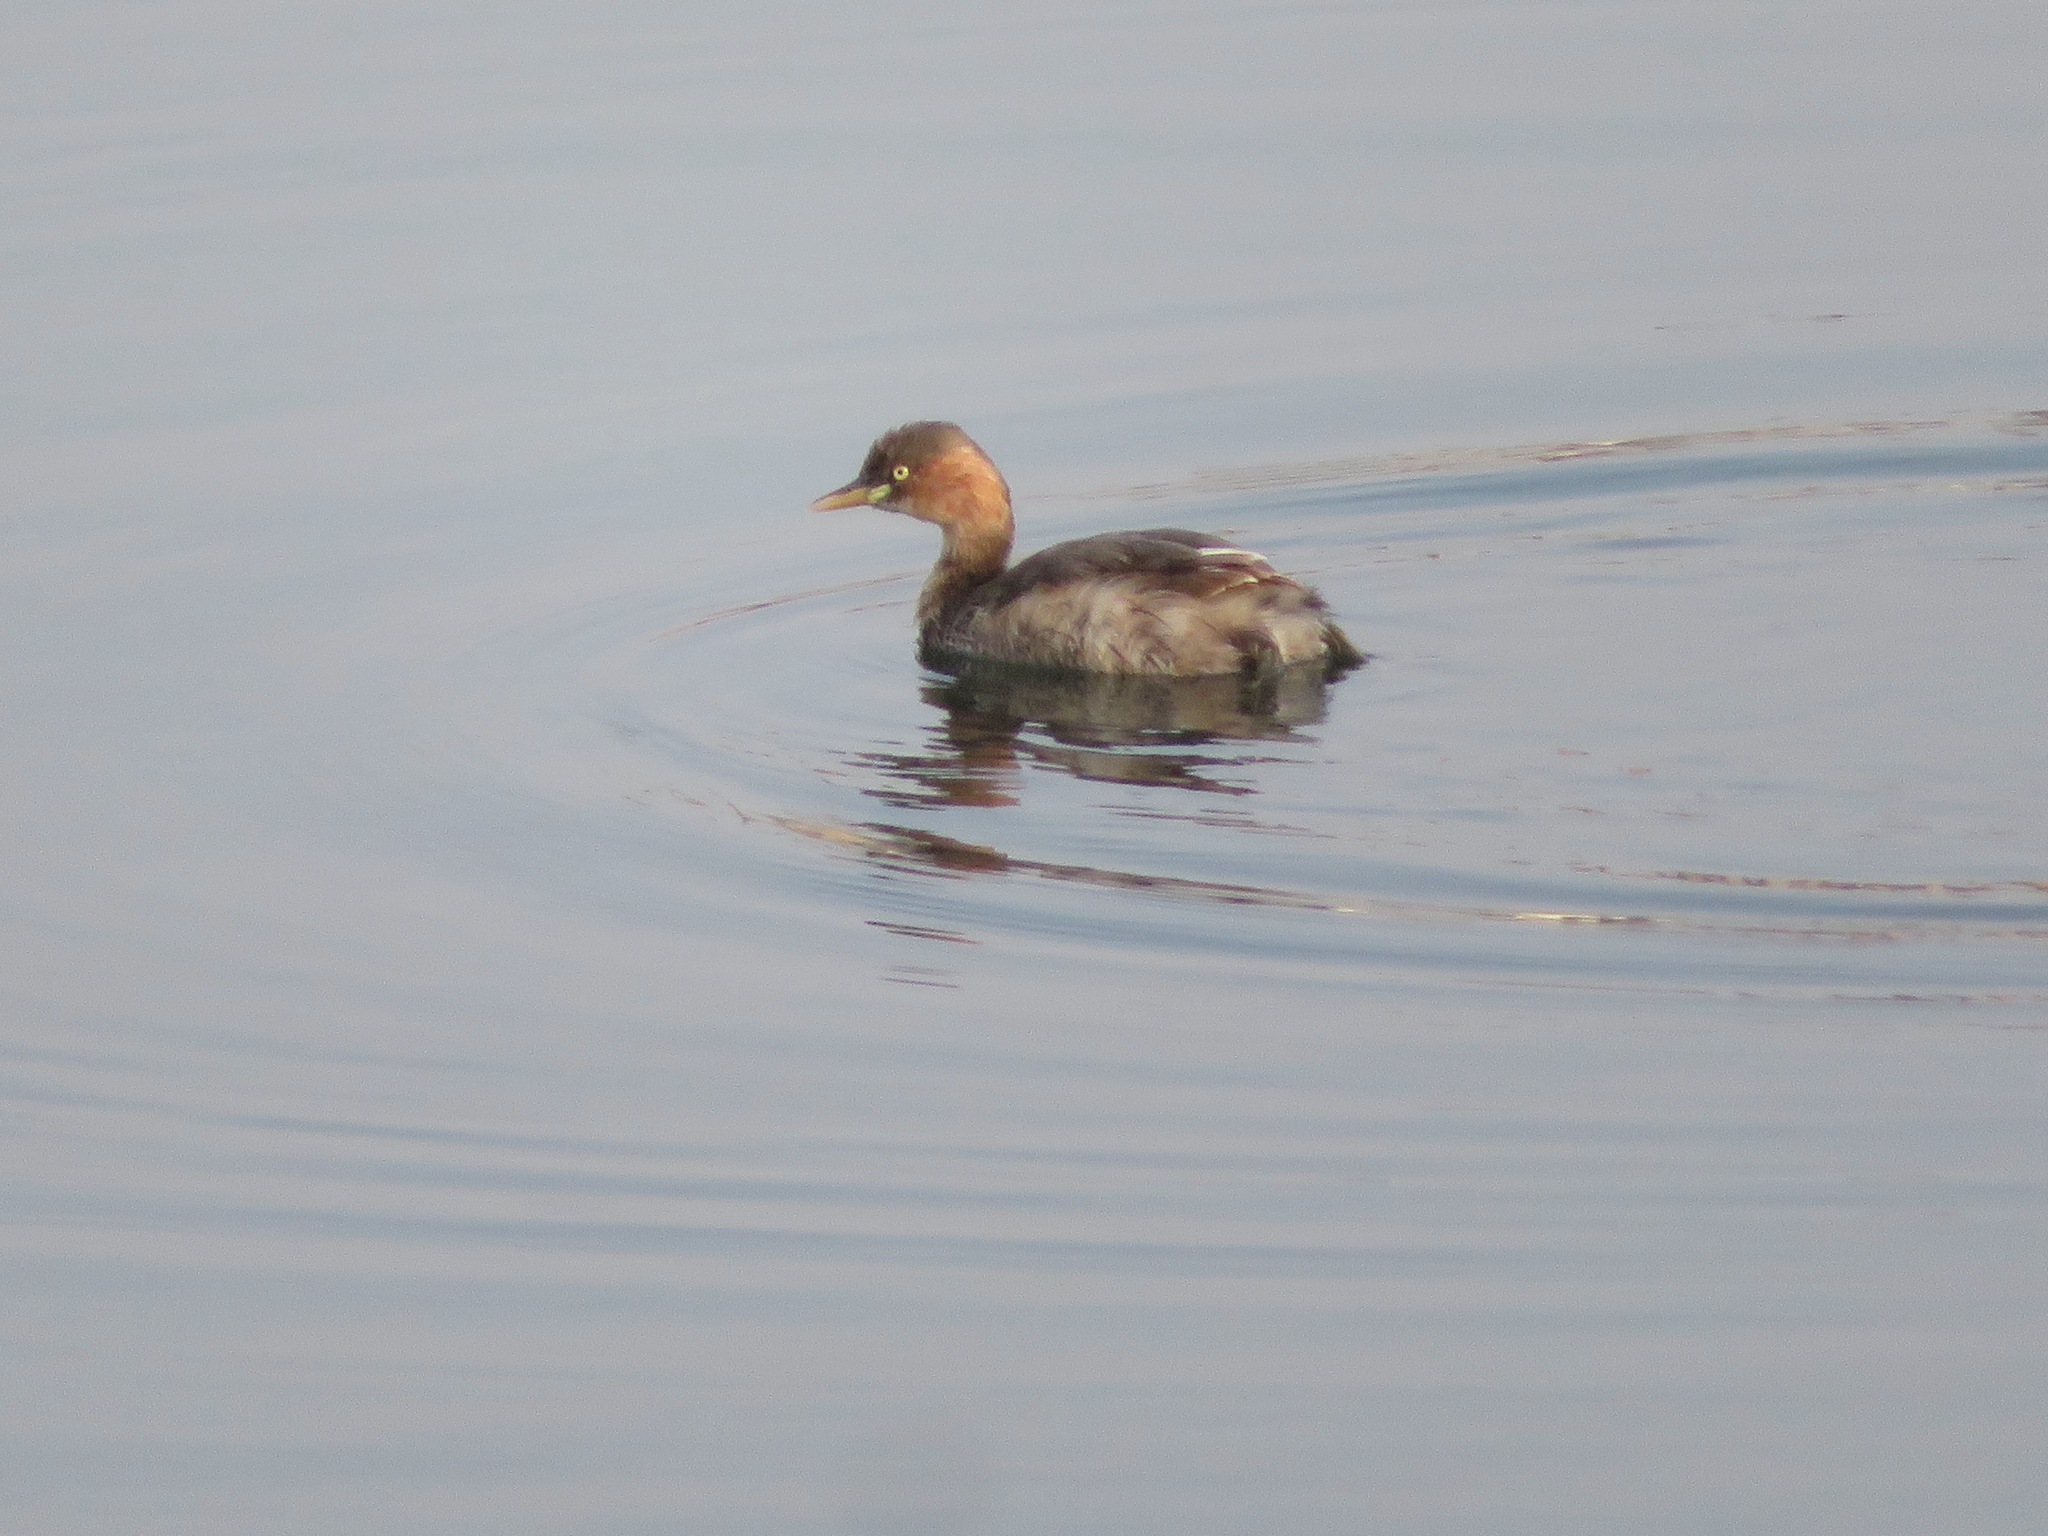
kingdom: Animalia
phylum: Chordata
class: Aves
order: Podicipediformes
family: Podicipedidae
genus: Tachybaptus
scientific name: Tachybaptus ruficollis
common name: Little grebe
